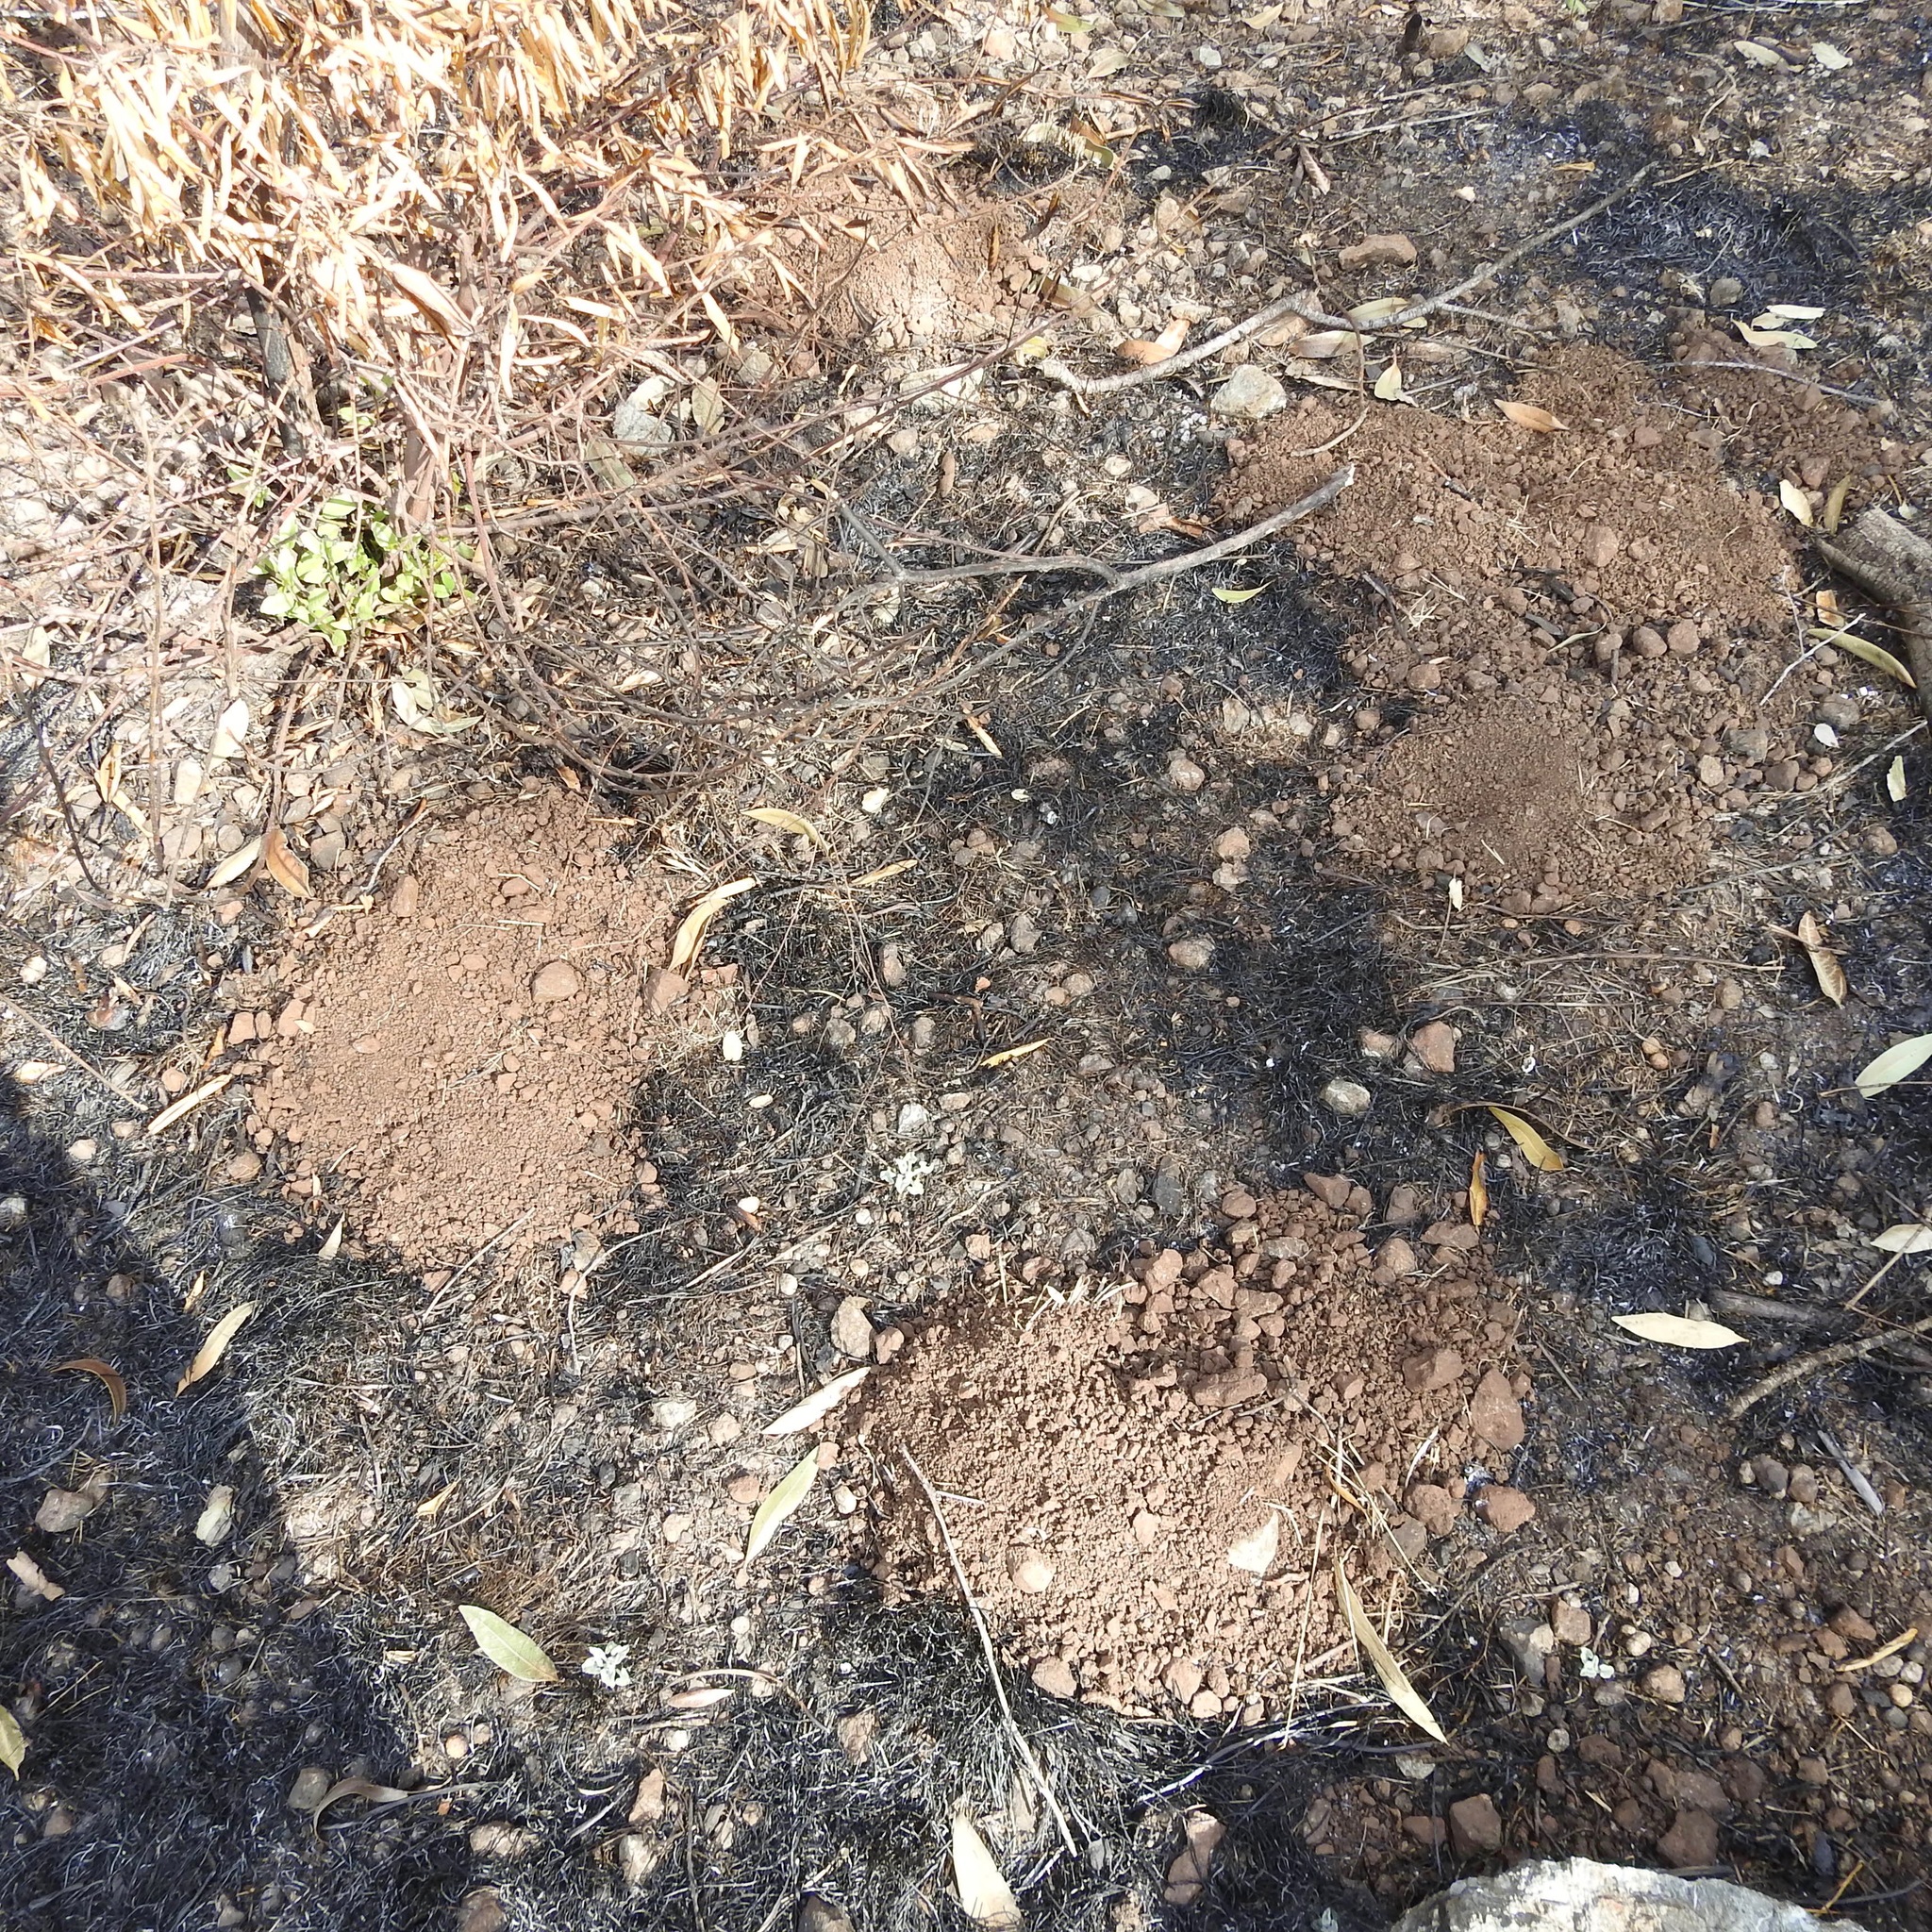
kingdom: Animalia
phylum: Chordata
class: Mammalia
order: Rodentia
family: Geomyidae
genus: Thomomys
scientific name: Thomomys bottae
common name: Botta's pocket gopher
